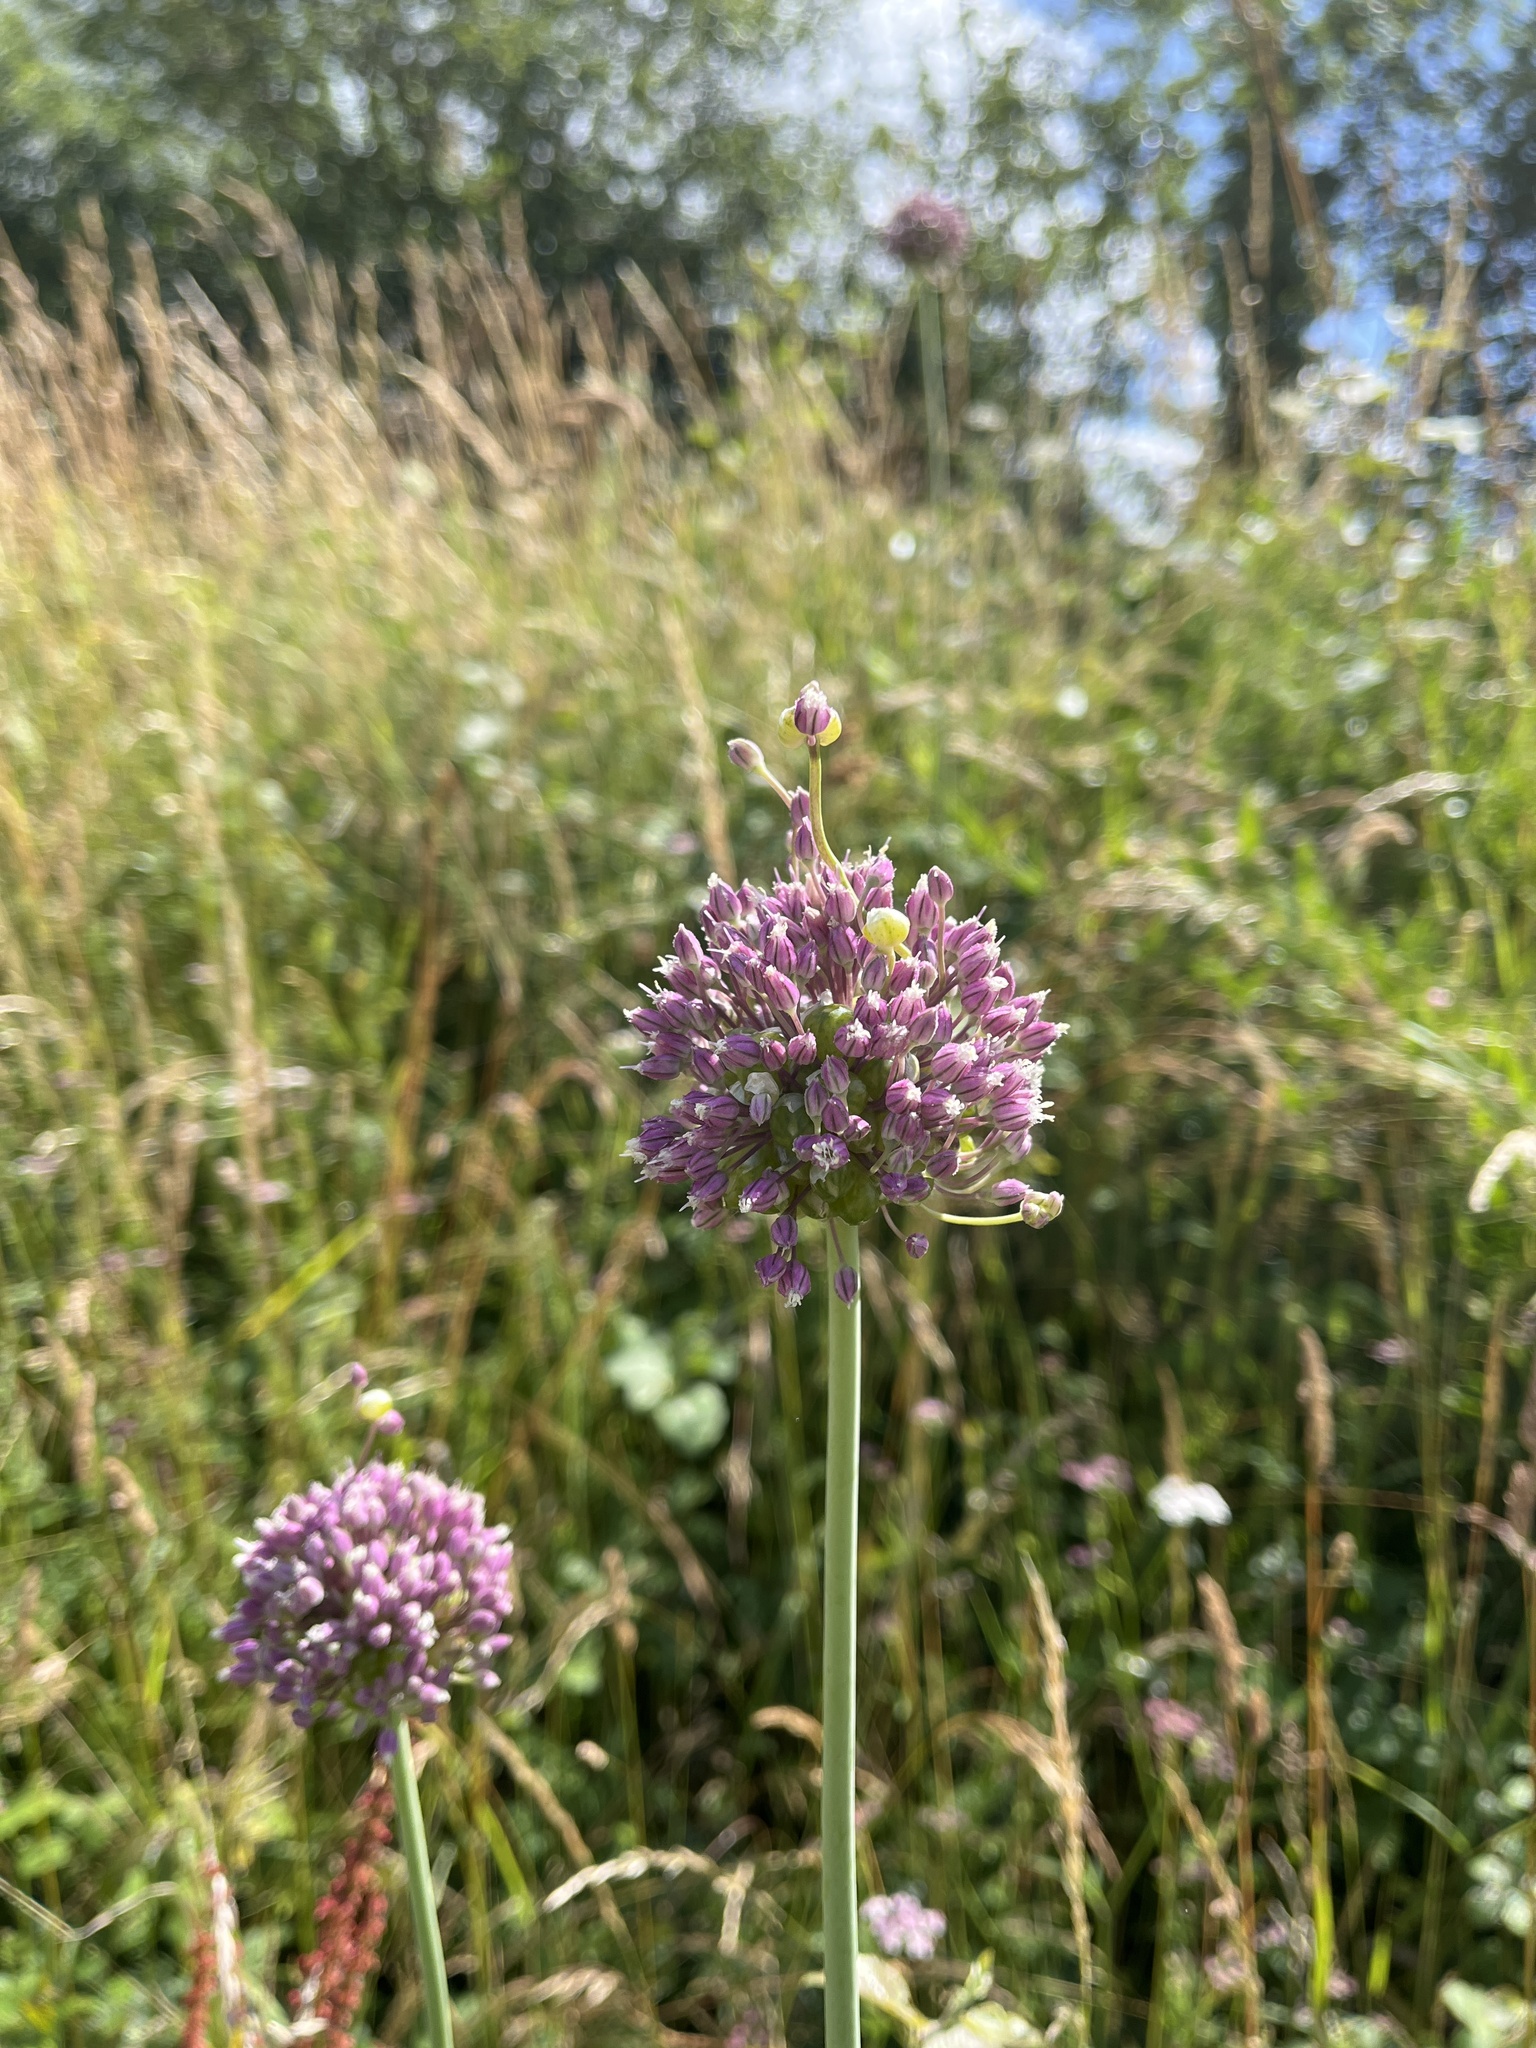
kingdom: Plantae
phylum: Tracheophyta
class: Liliopsida
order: Asparagales
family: Amaryllidaceae
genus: Allium
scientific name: Allium vineale
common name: Crow garlic
